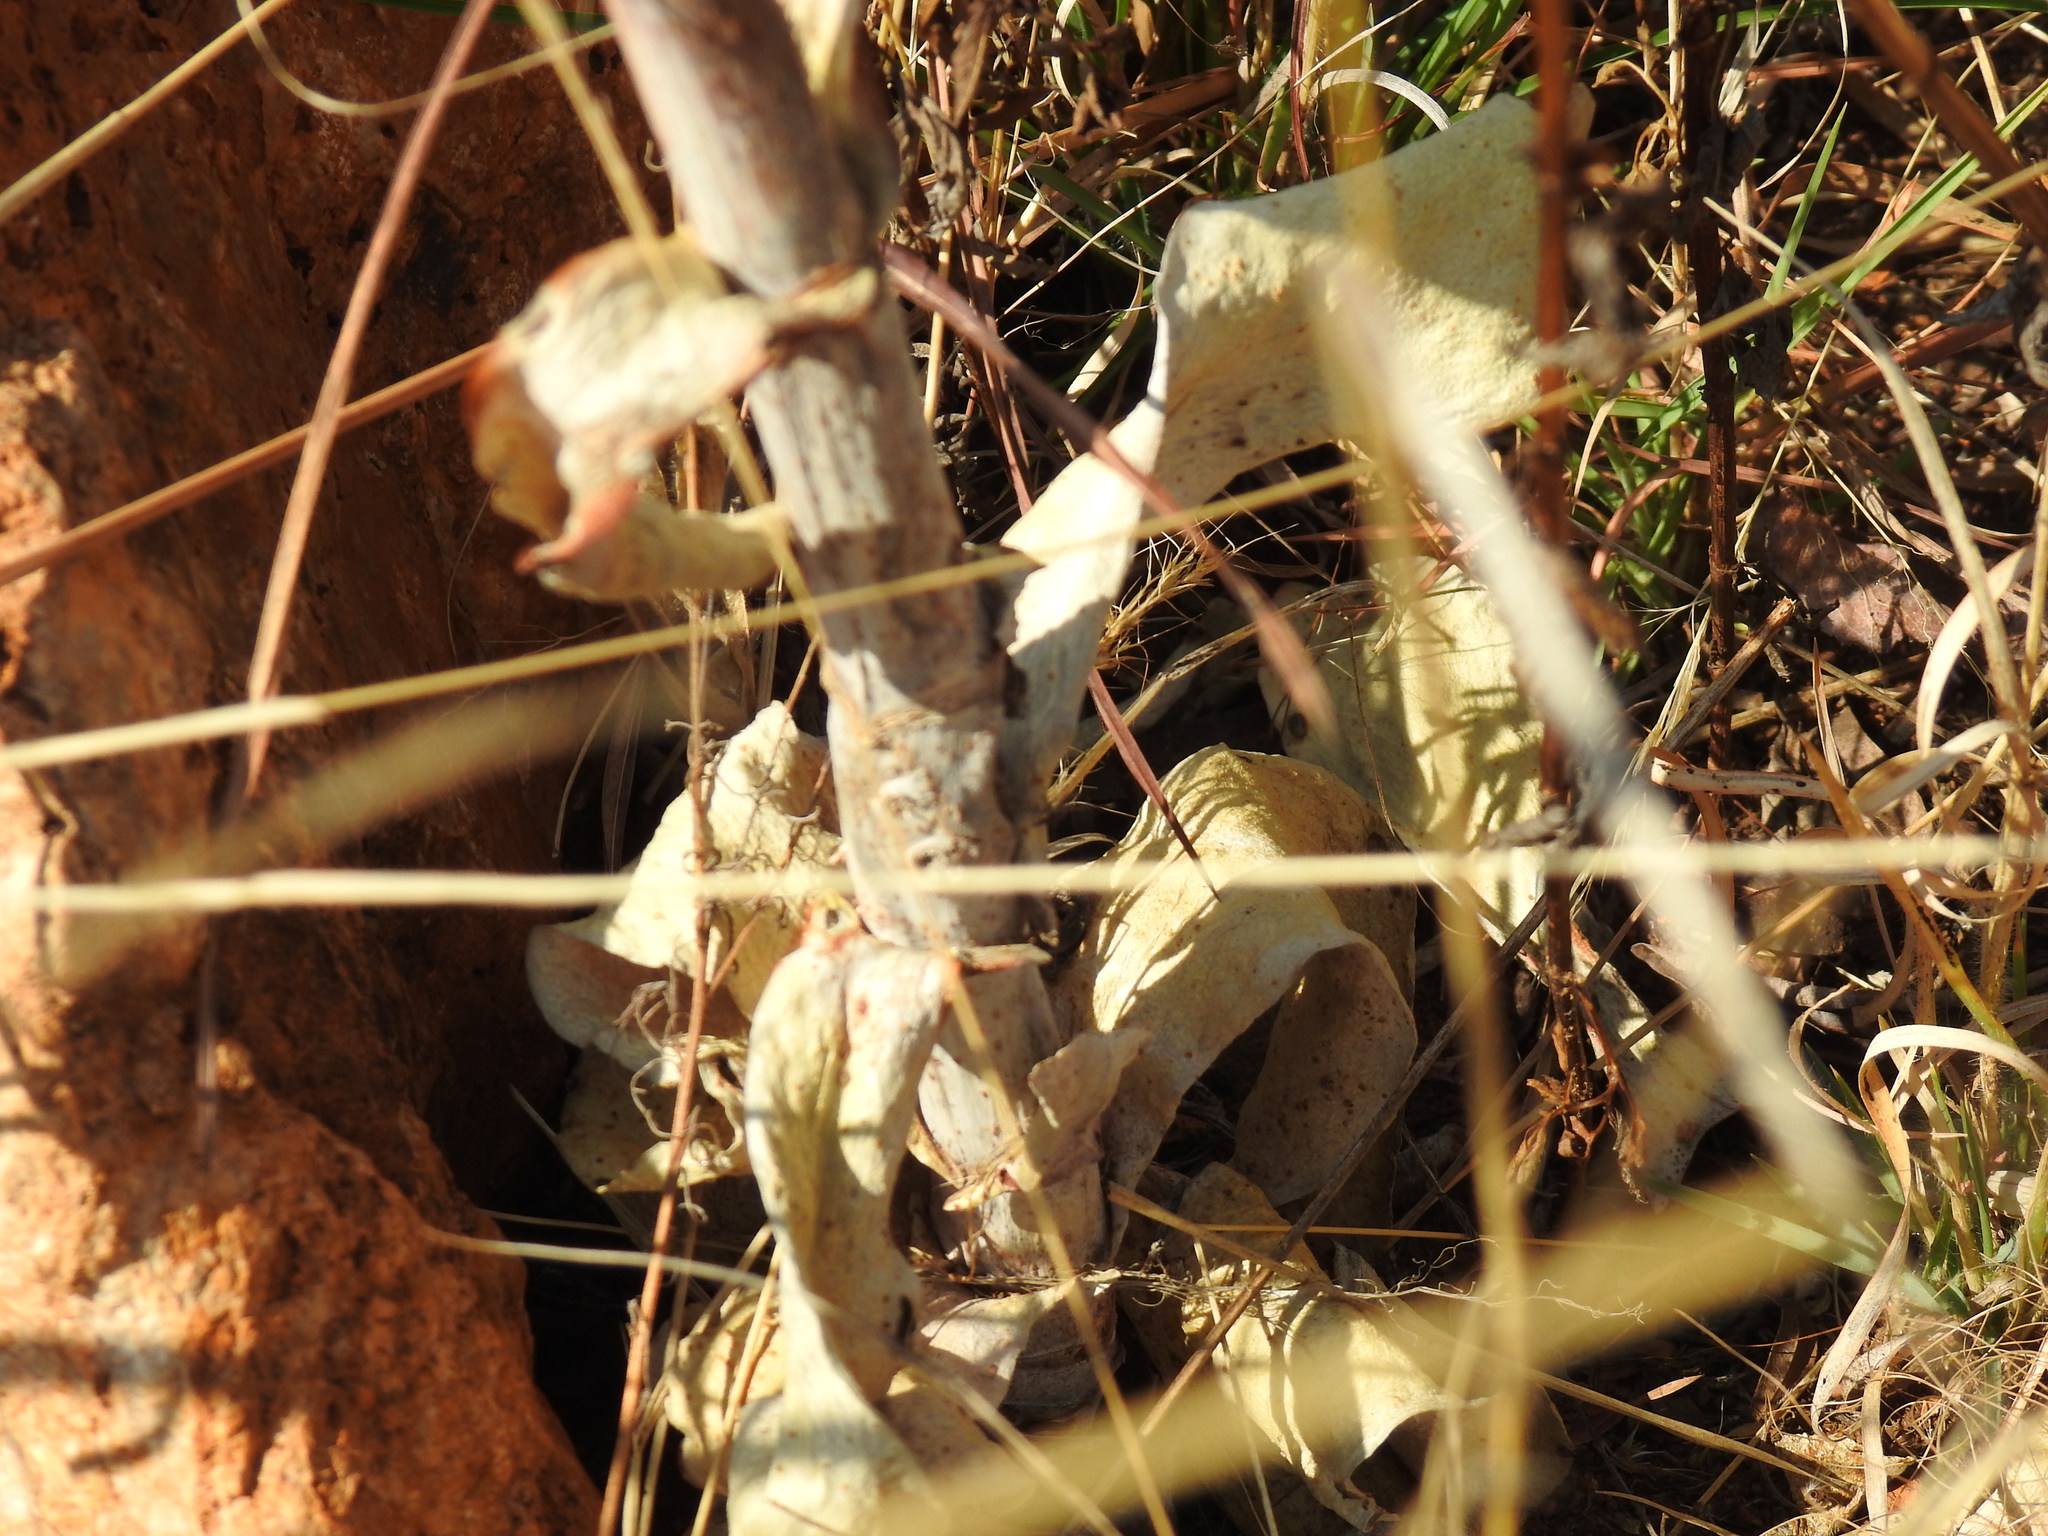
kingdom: Plantae
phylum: Tracheophyta
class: Magnoliopsida
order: Saxifragales
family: Crassulaceae
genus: Kalanchoe
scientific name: Kalanchoe thyrsiflora
